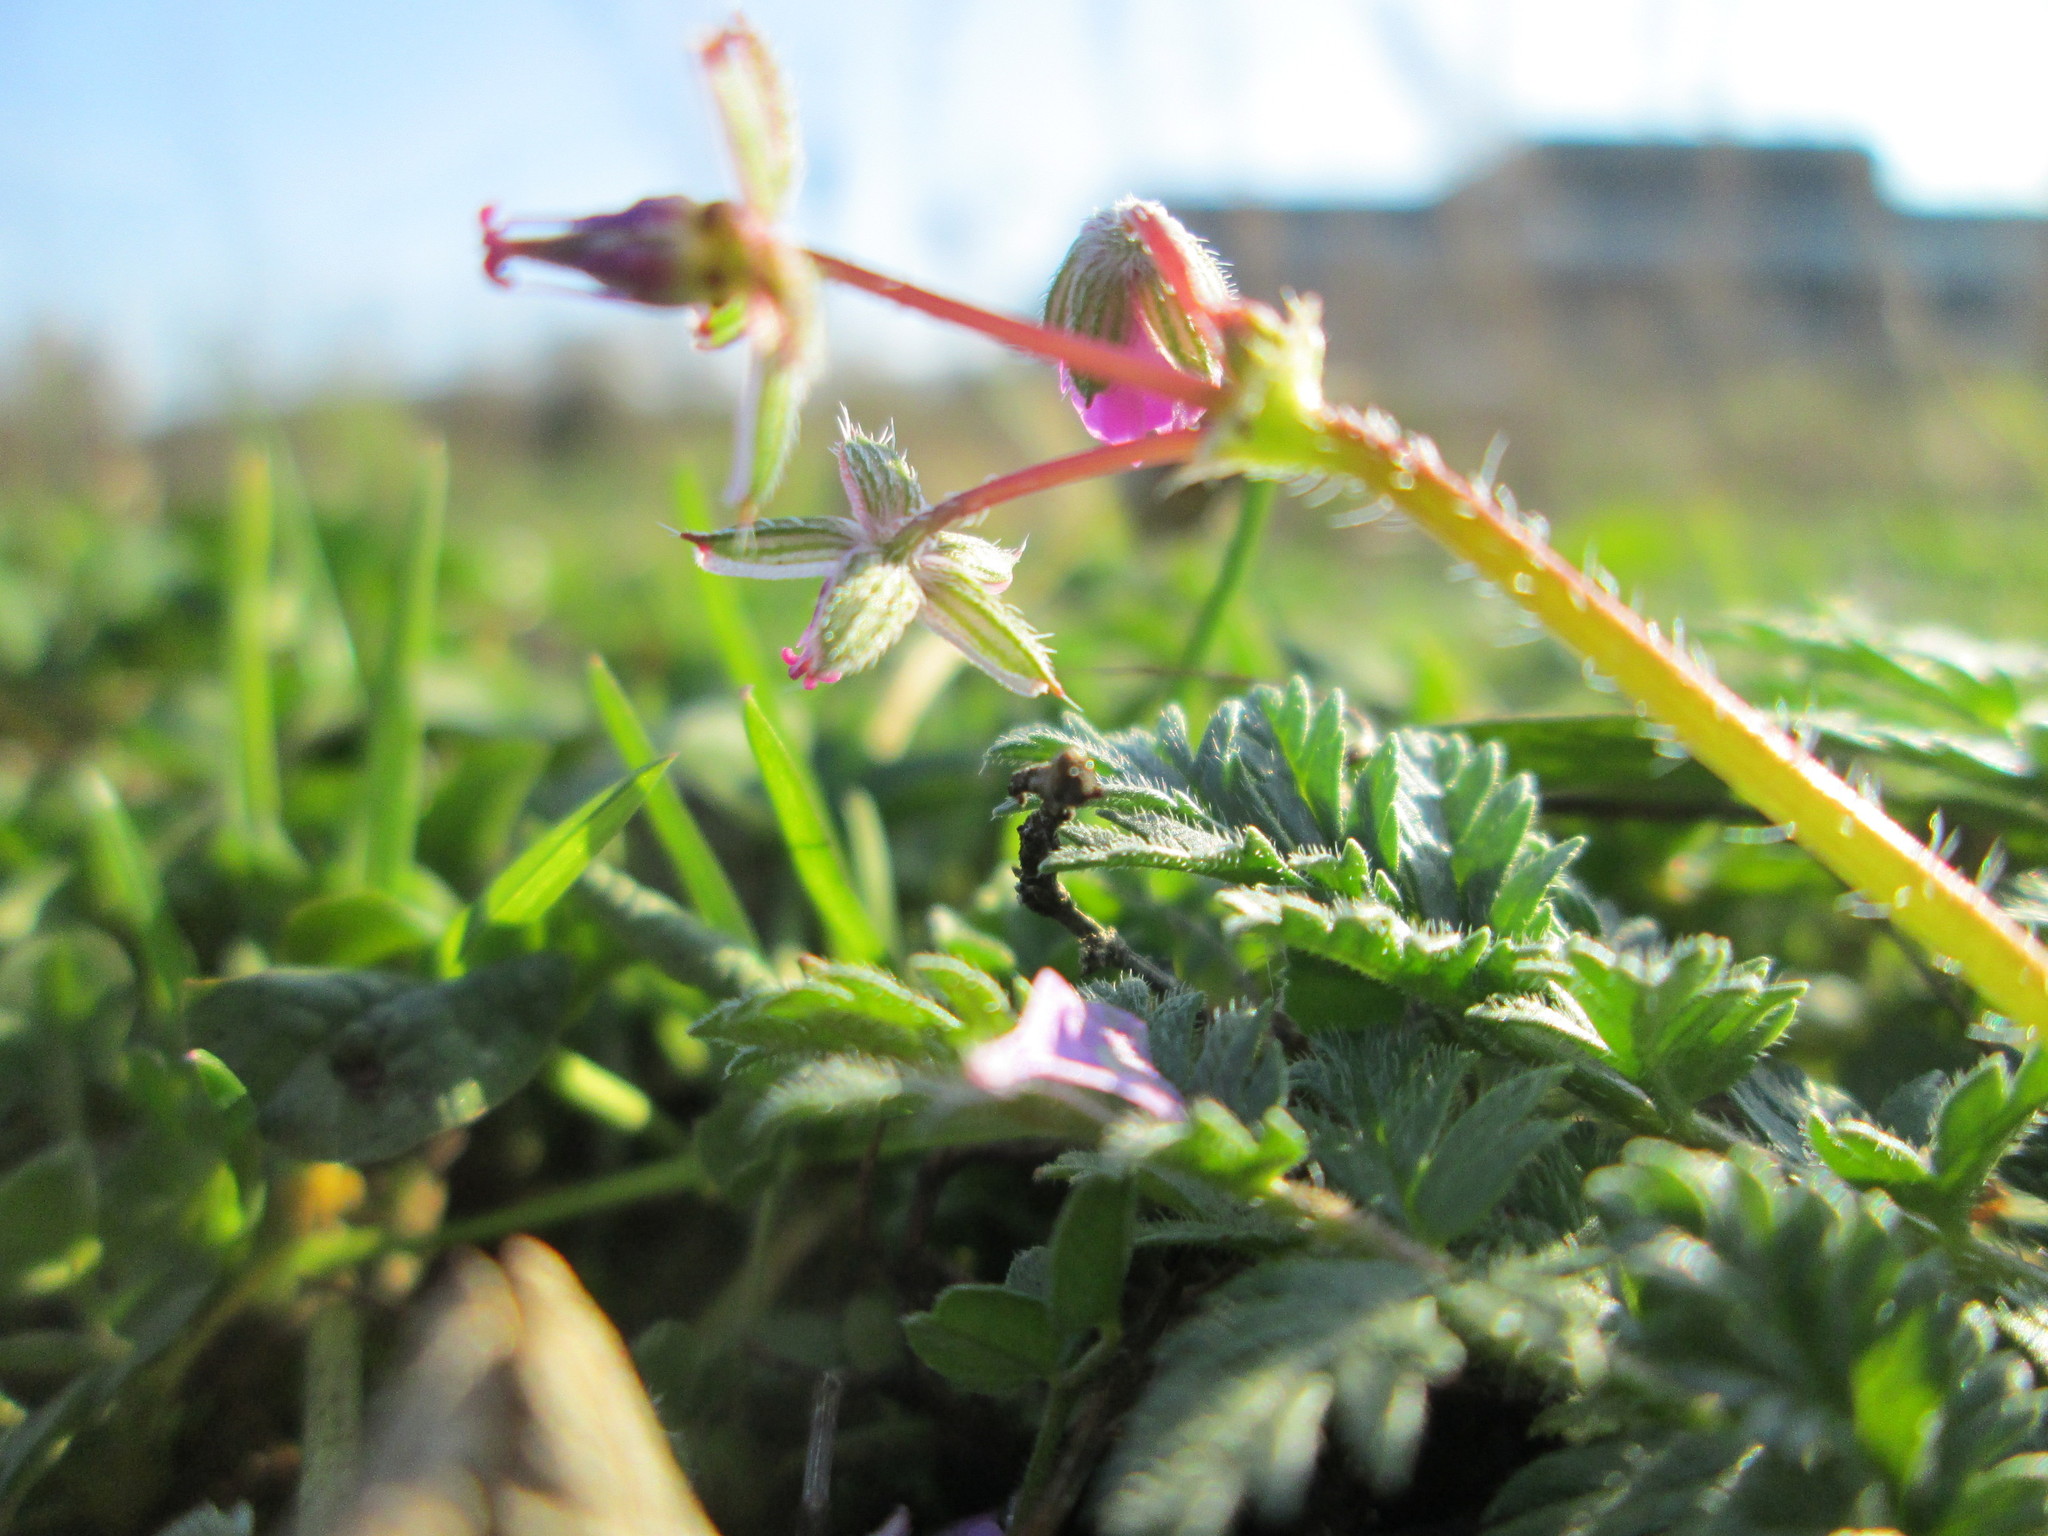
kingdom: Plantae
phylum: Tracheophyta
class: Magnoliopsida
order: Geraniales
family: Geraniaceae
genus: Erodium
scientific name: Erodium cicutarium
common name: Common stork's-bill
